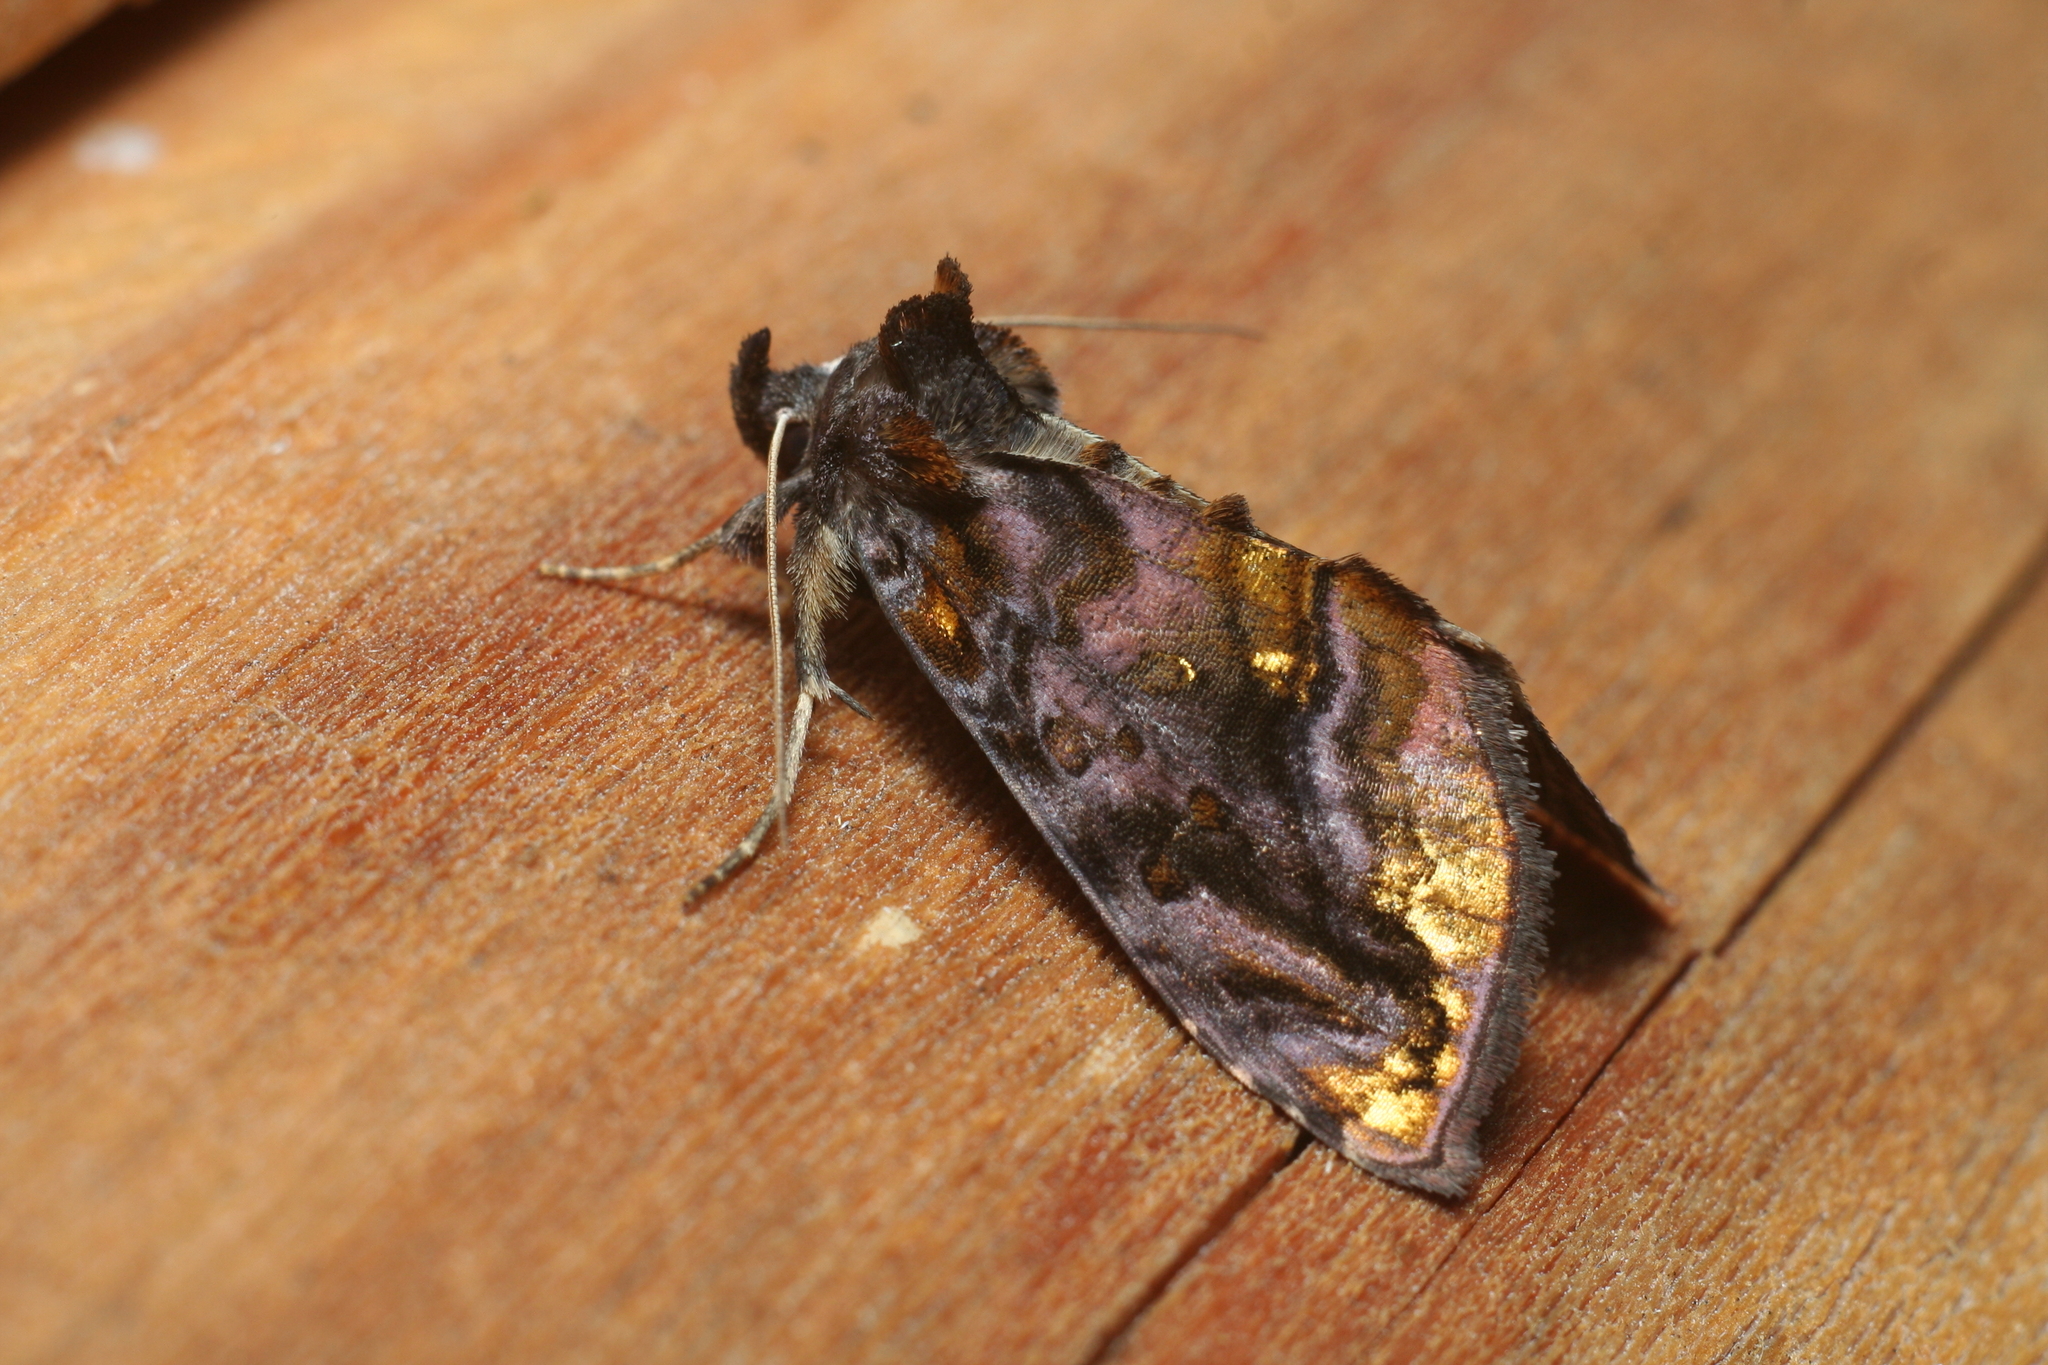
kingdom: Animalia
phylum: Arthropoda
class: Insecta
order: Lepidoptera
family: Noctuidae
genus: Lamprotes
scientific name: Lamprotes caureum
